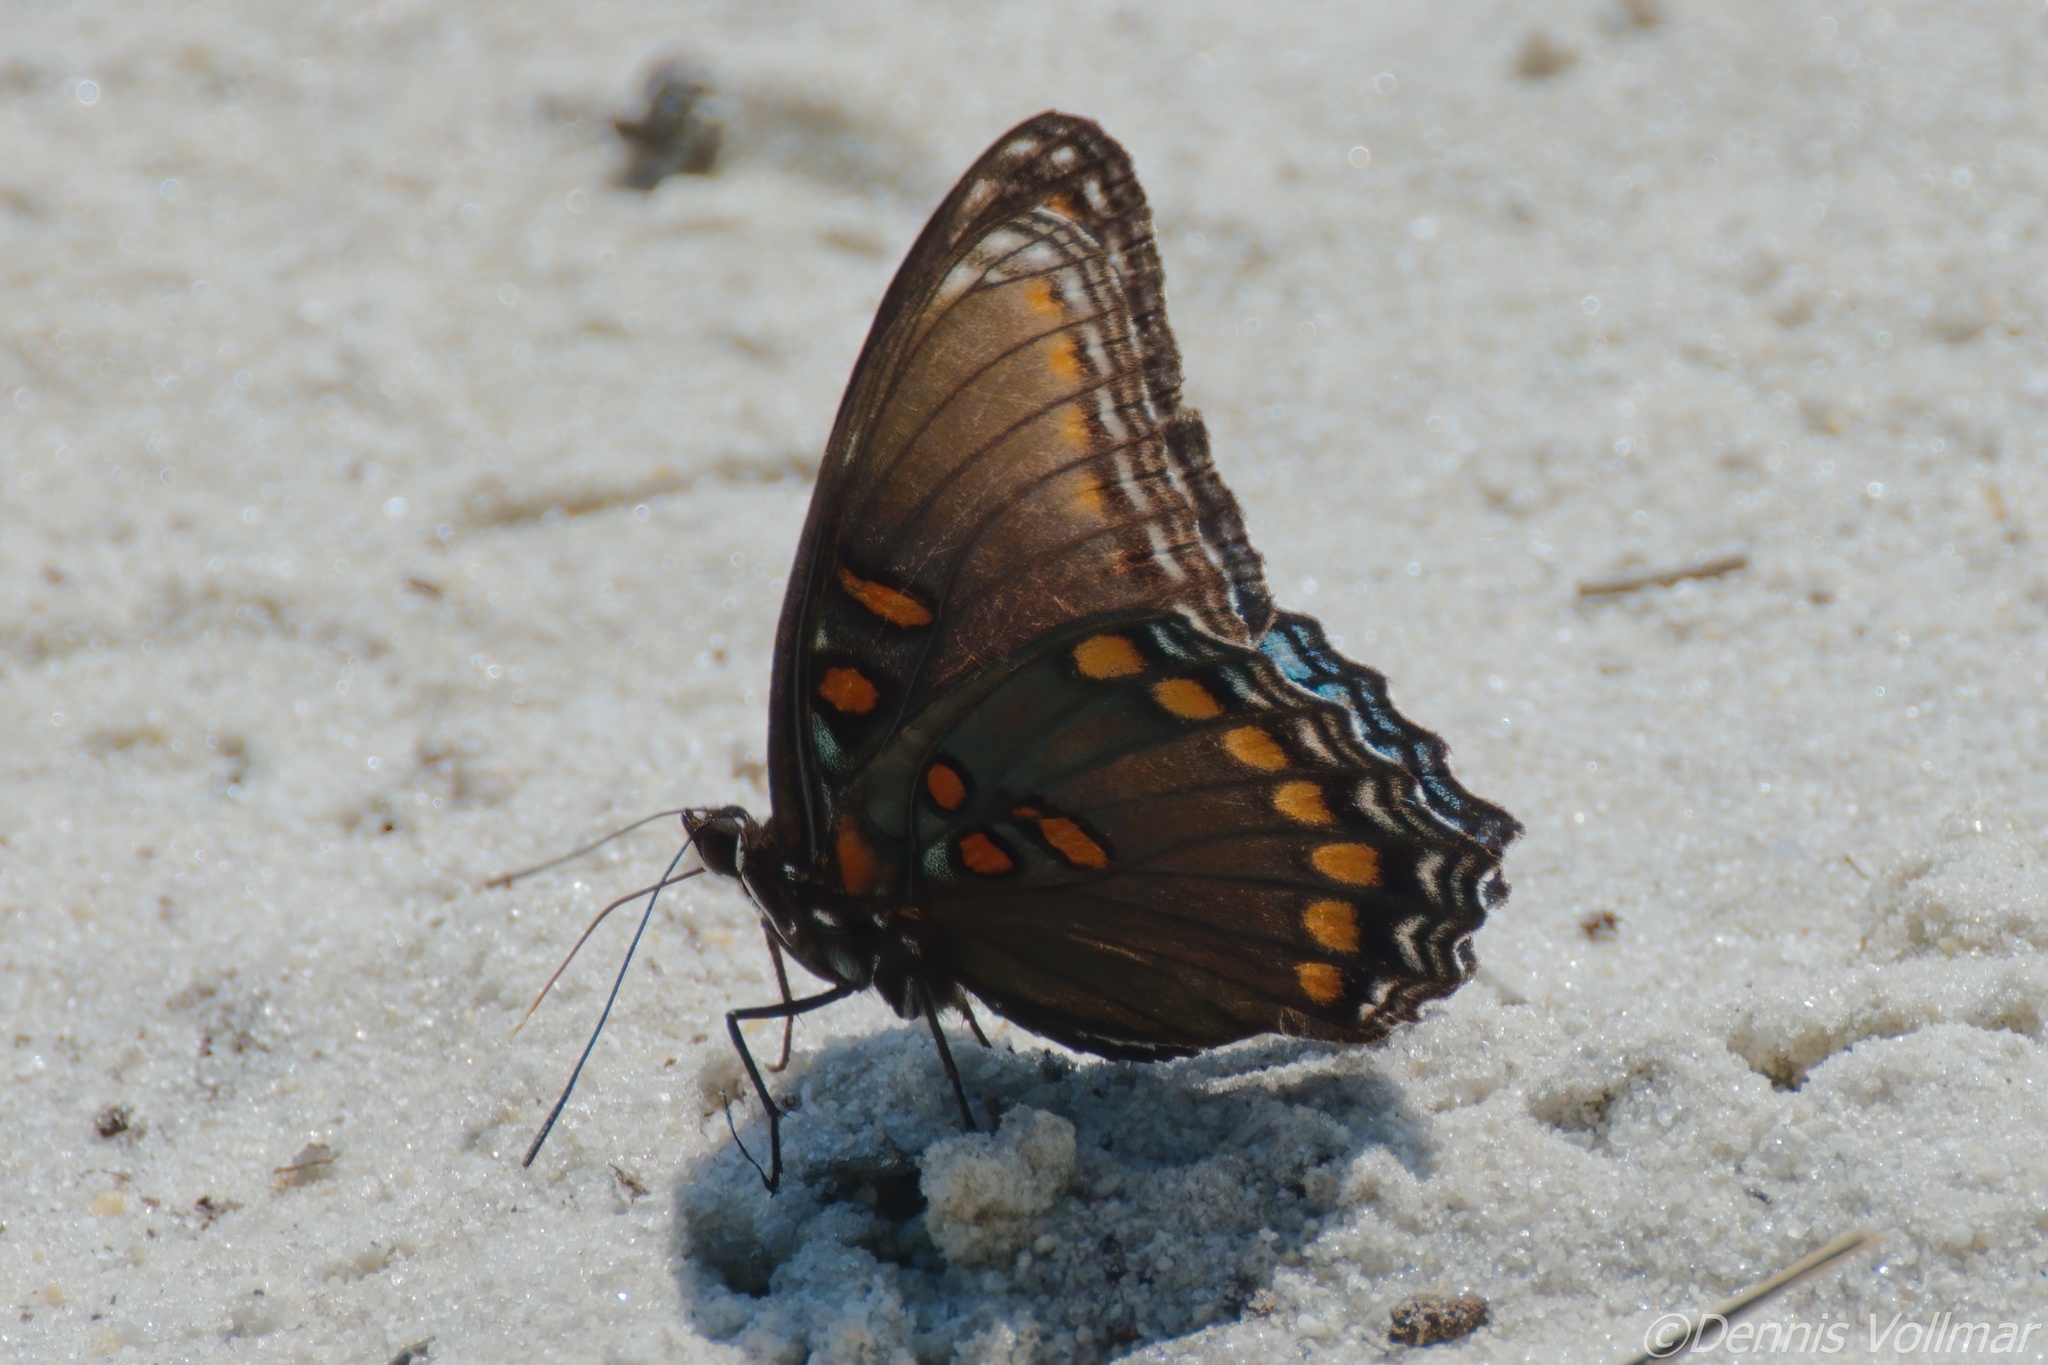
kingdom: Animalia
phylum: Arthropoda
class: Insecta
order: Lepidoptera
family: Nymphalidae
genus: Limenitis
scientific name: Limenitis arthemis
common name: Red-spotted admiral
